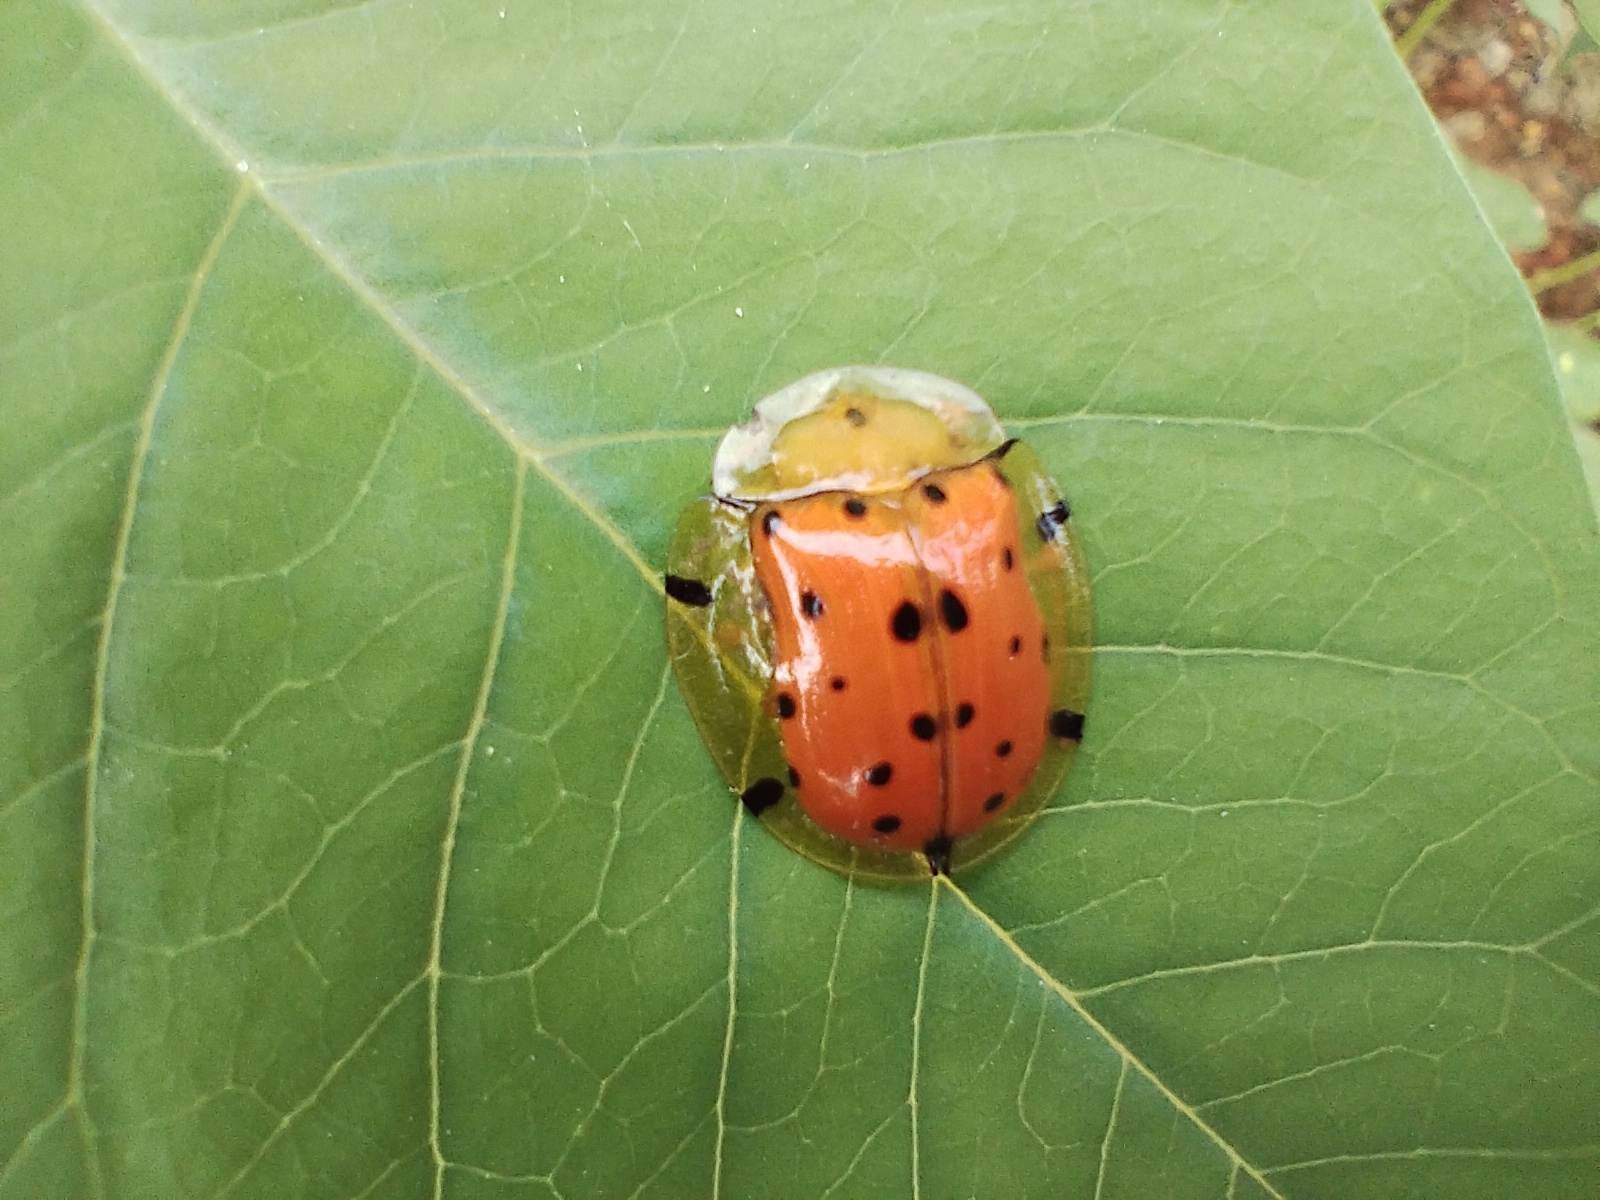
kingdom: Animalia
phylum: Arthropoda
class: Insecta
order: Coleoptera
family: Chrysomelidae
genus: Aspidimorpha
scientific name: Aspidimorpha miliaris
